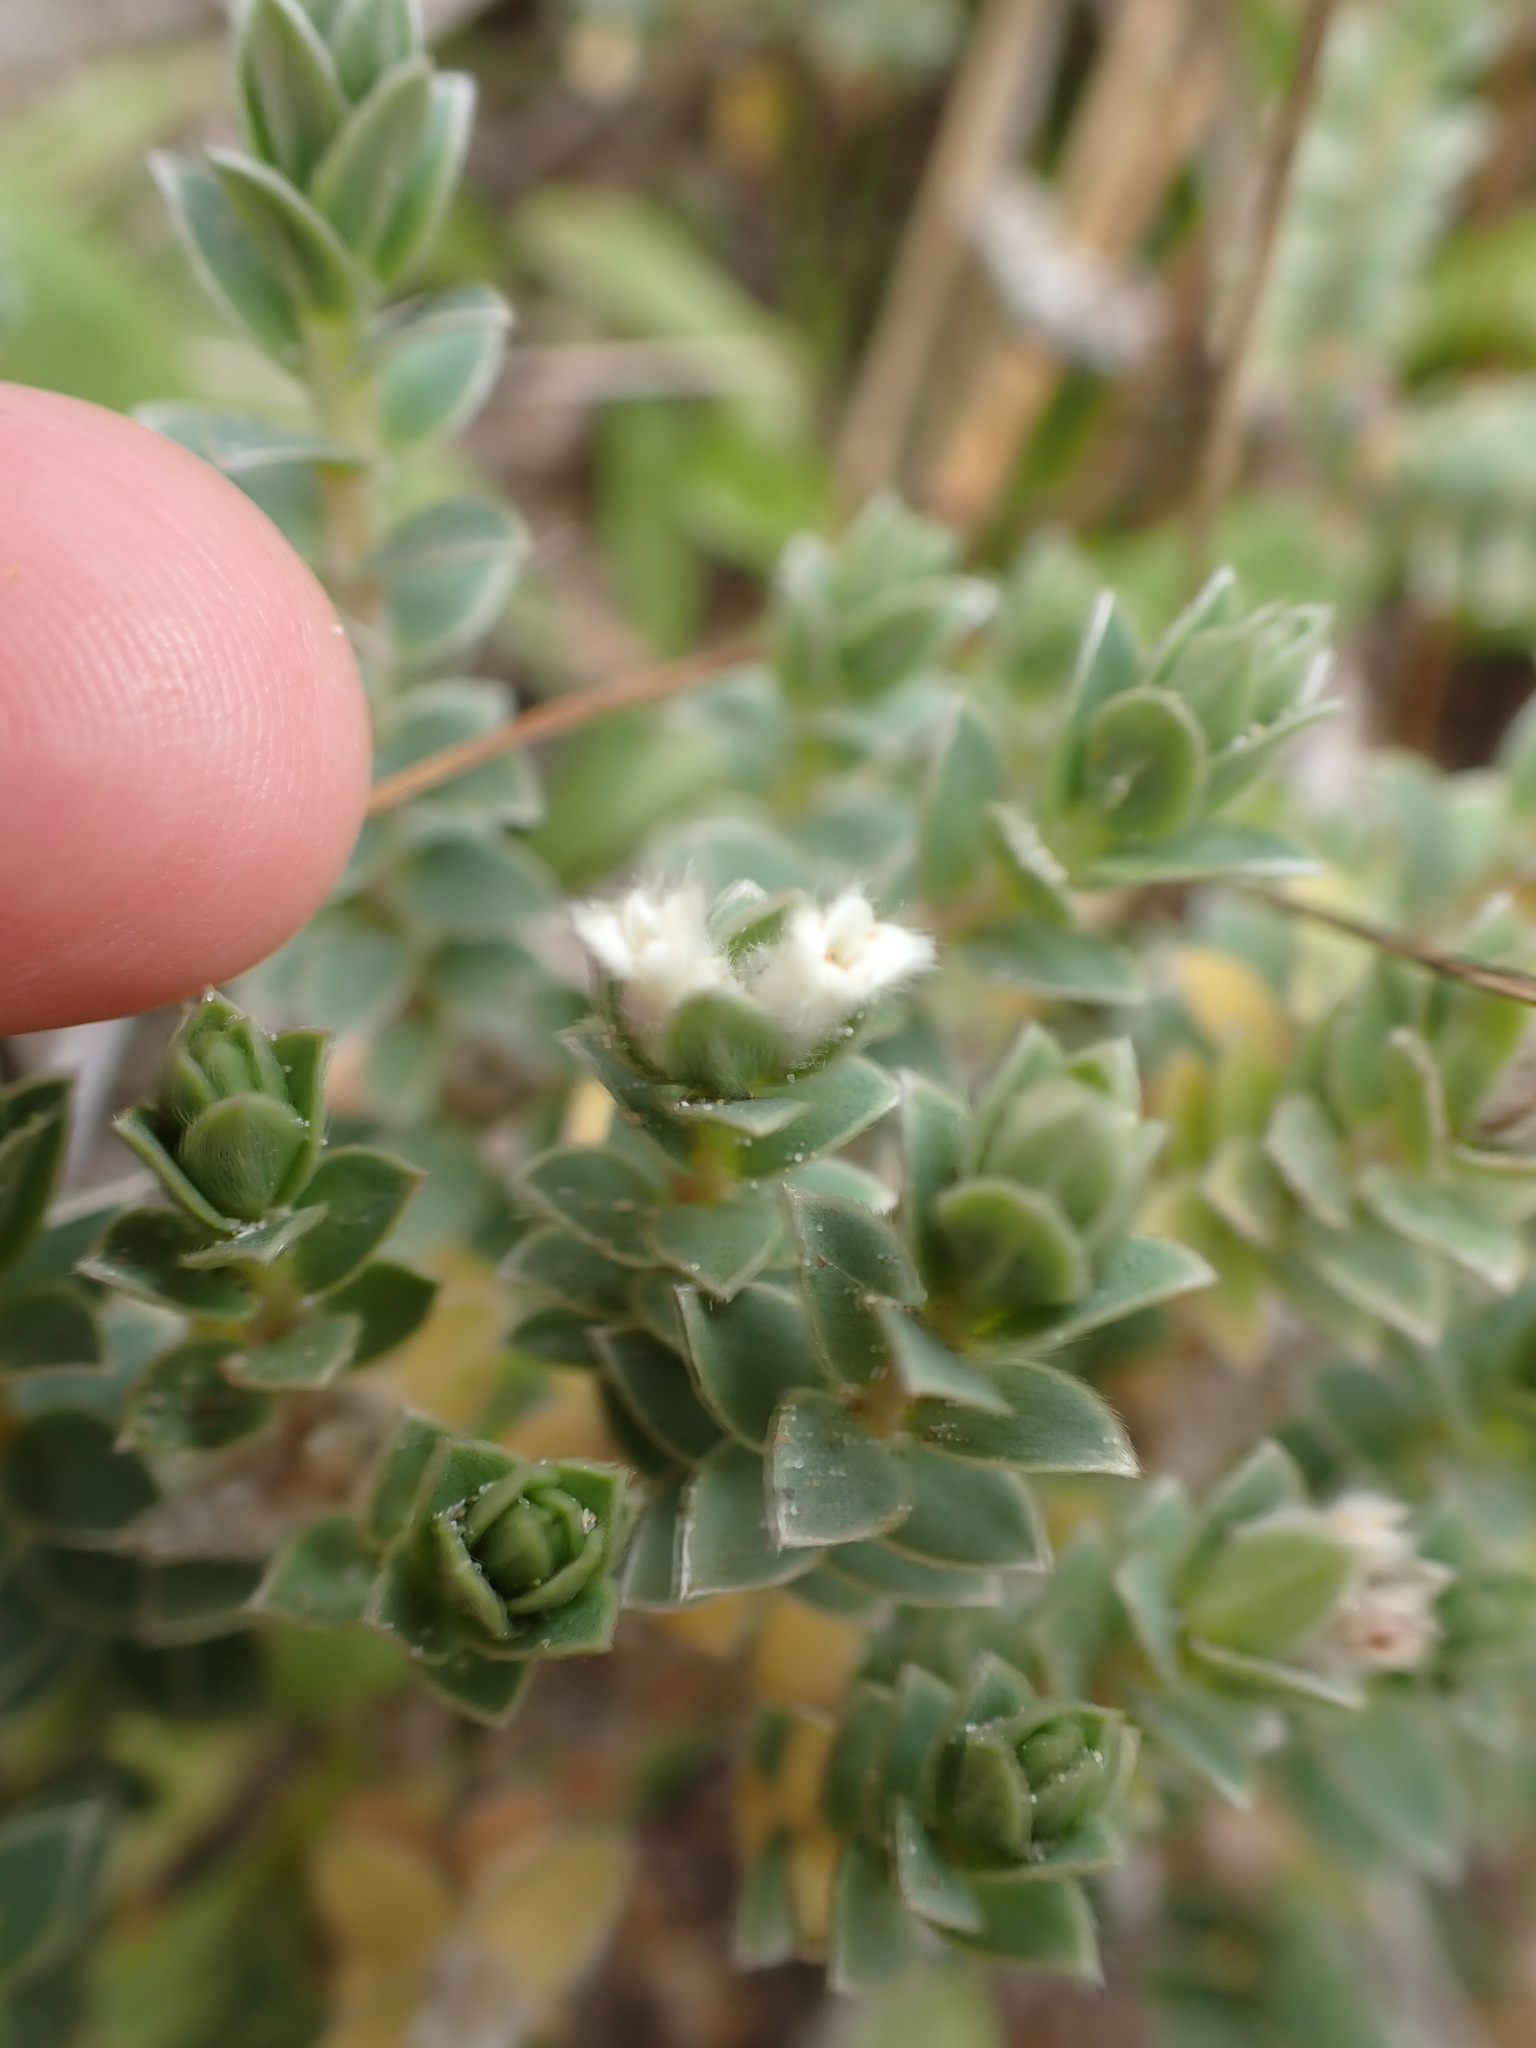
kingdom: Plantae
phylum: Tracheophyta
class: Magnoliopsida
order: Malvales
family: Thymelaeaceae
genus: Pimelea
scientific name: Pimelea villosa
